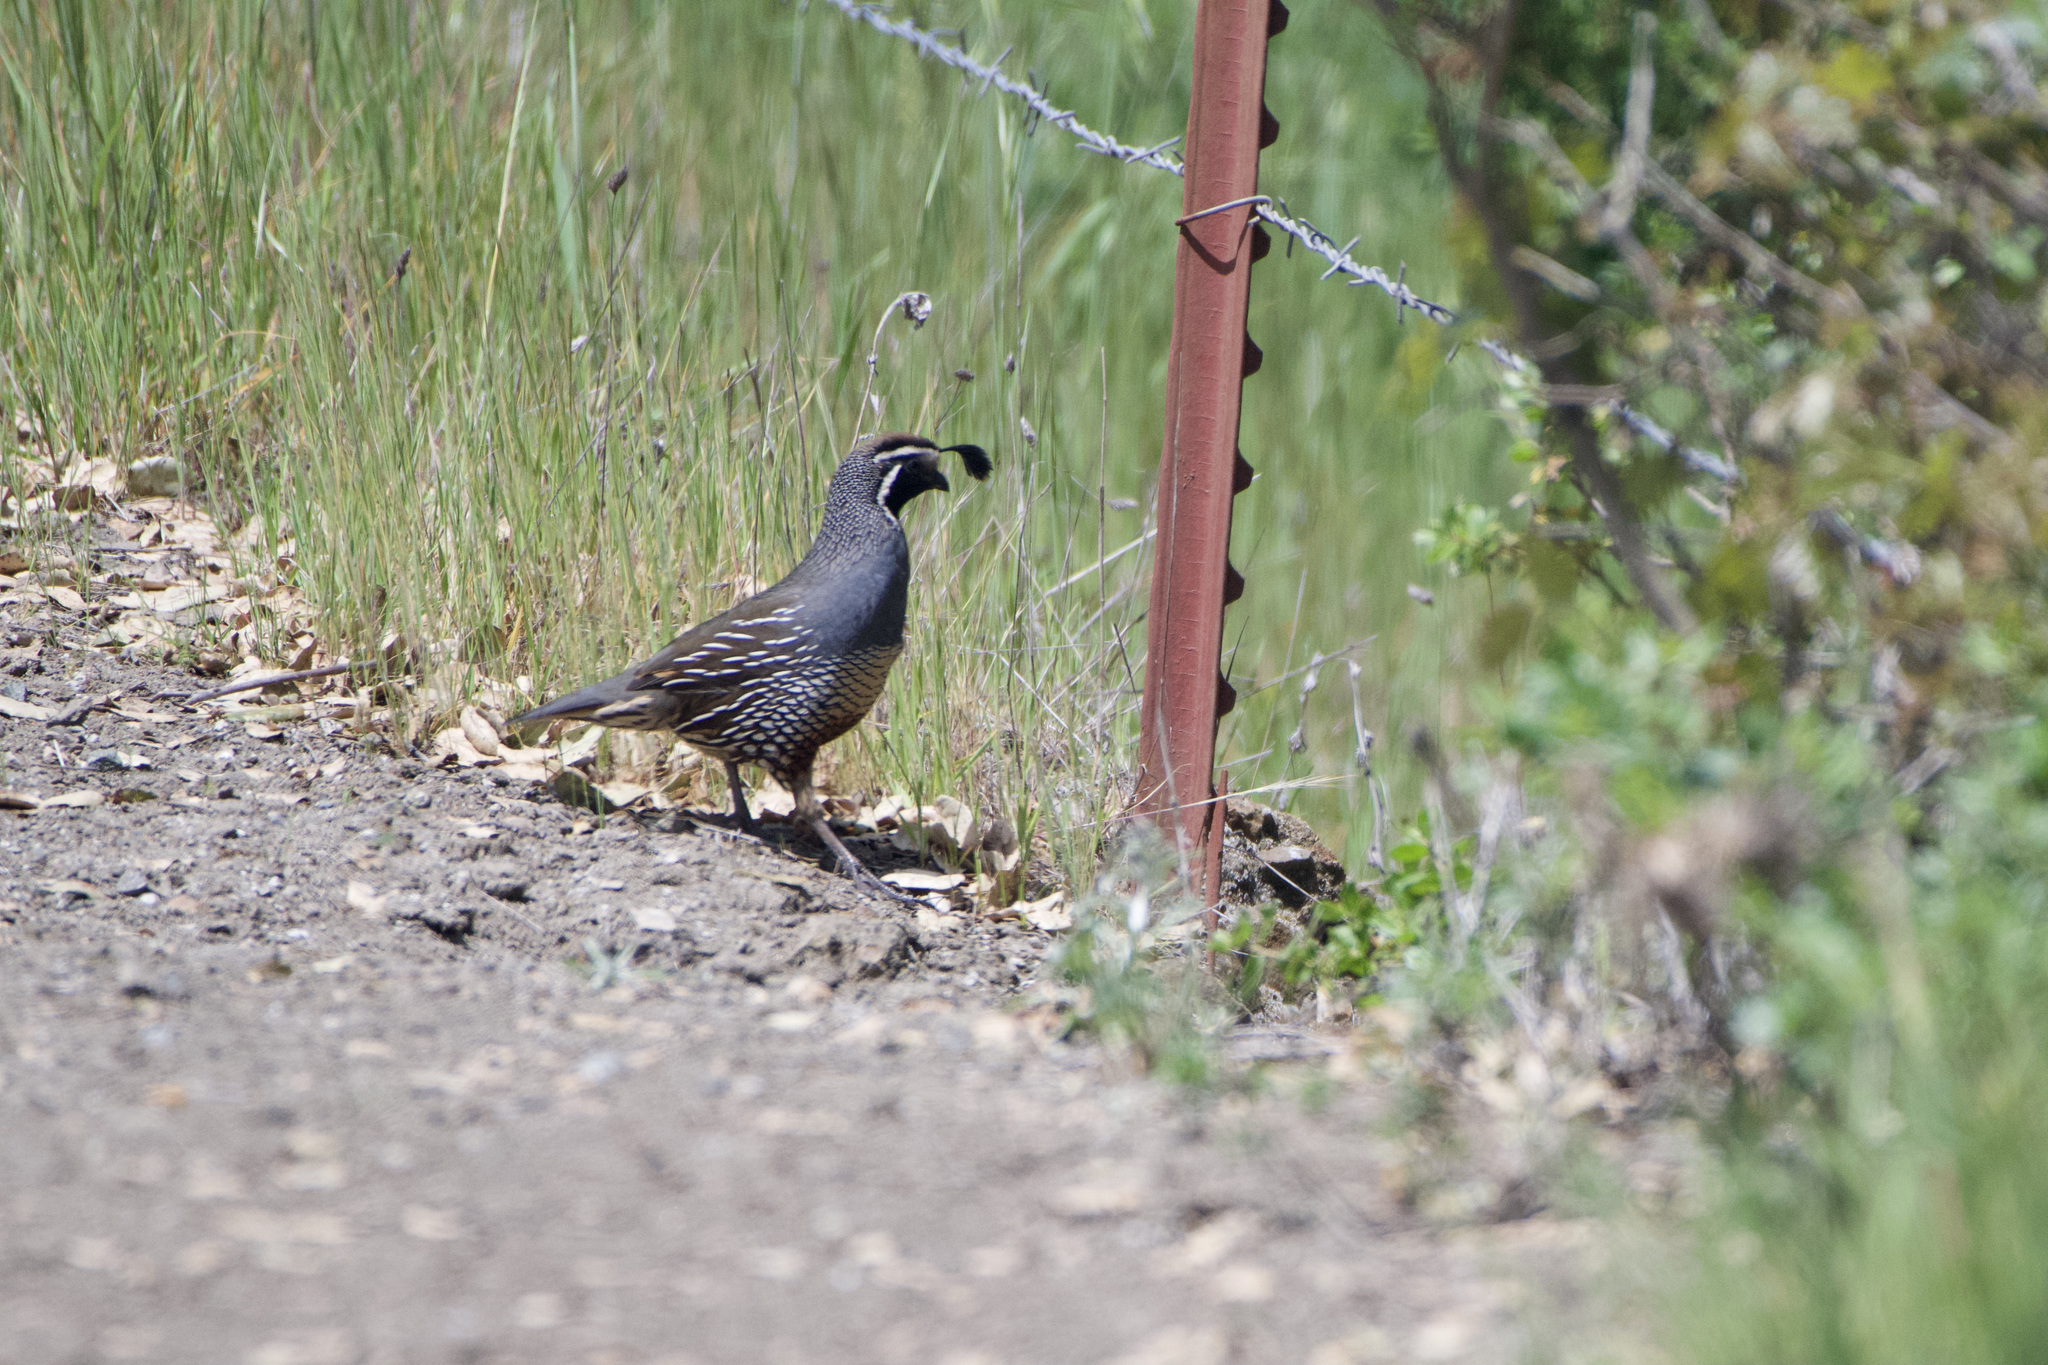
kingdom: Animalia
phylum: Chordata
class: Aves
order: Galliformes
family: Odontophoridae
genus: Callipepla
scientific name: Callipepla californica
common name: California quail
